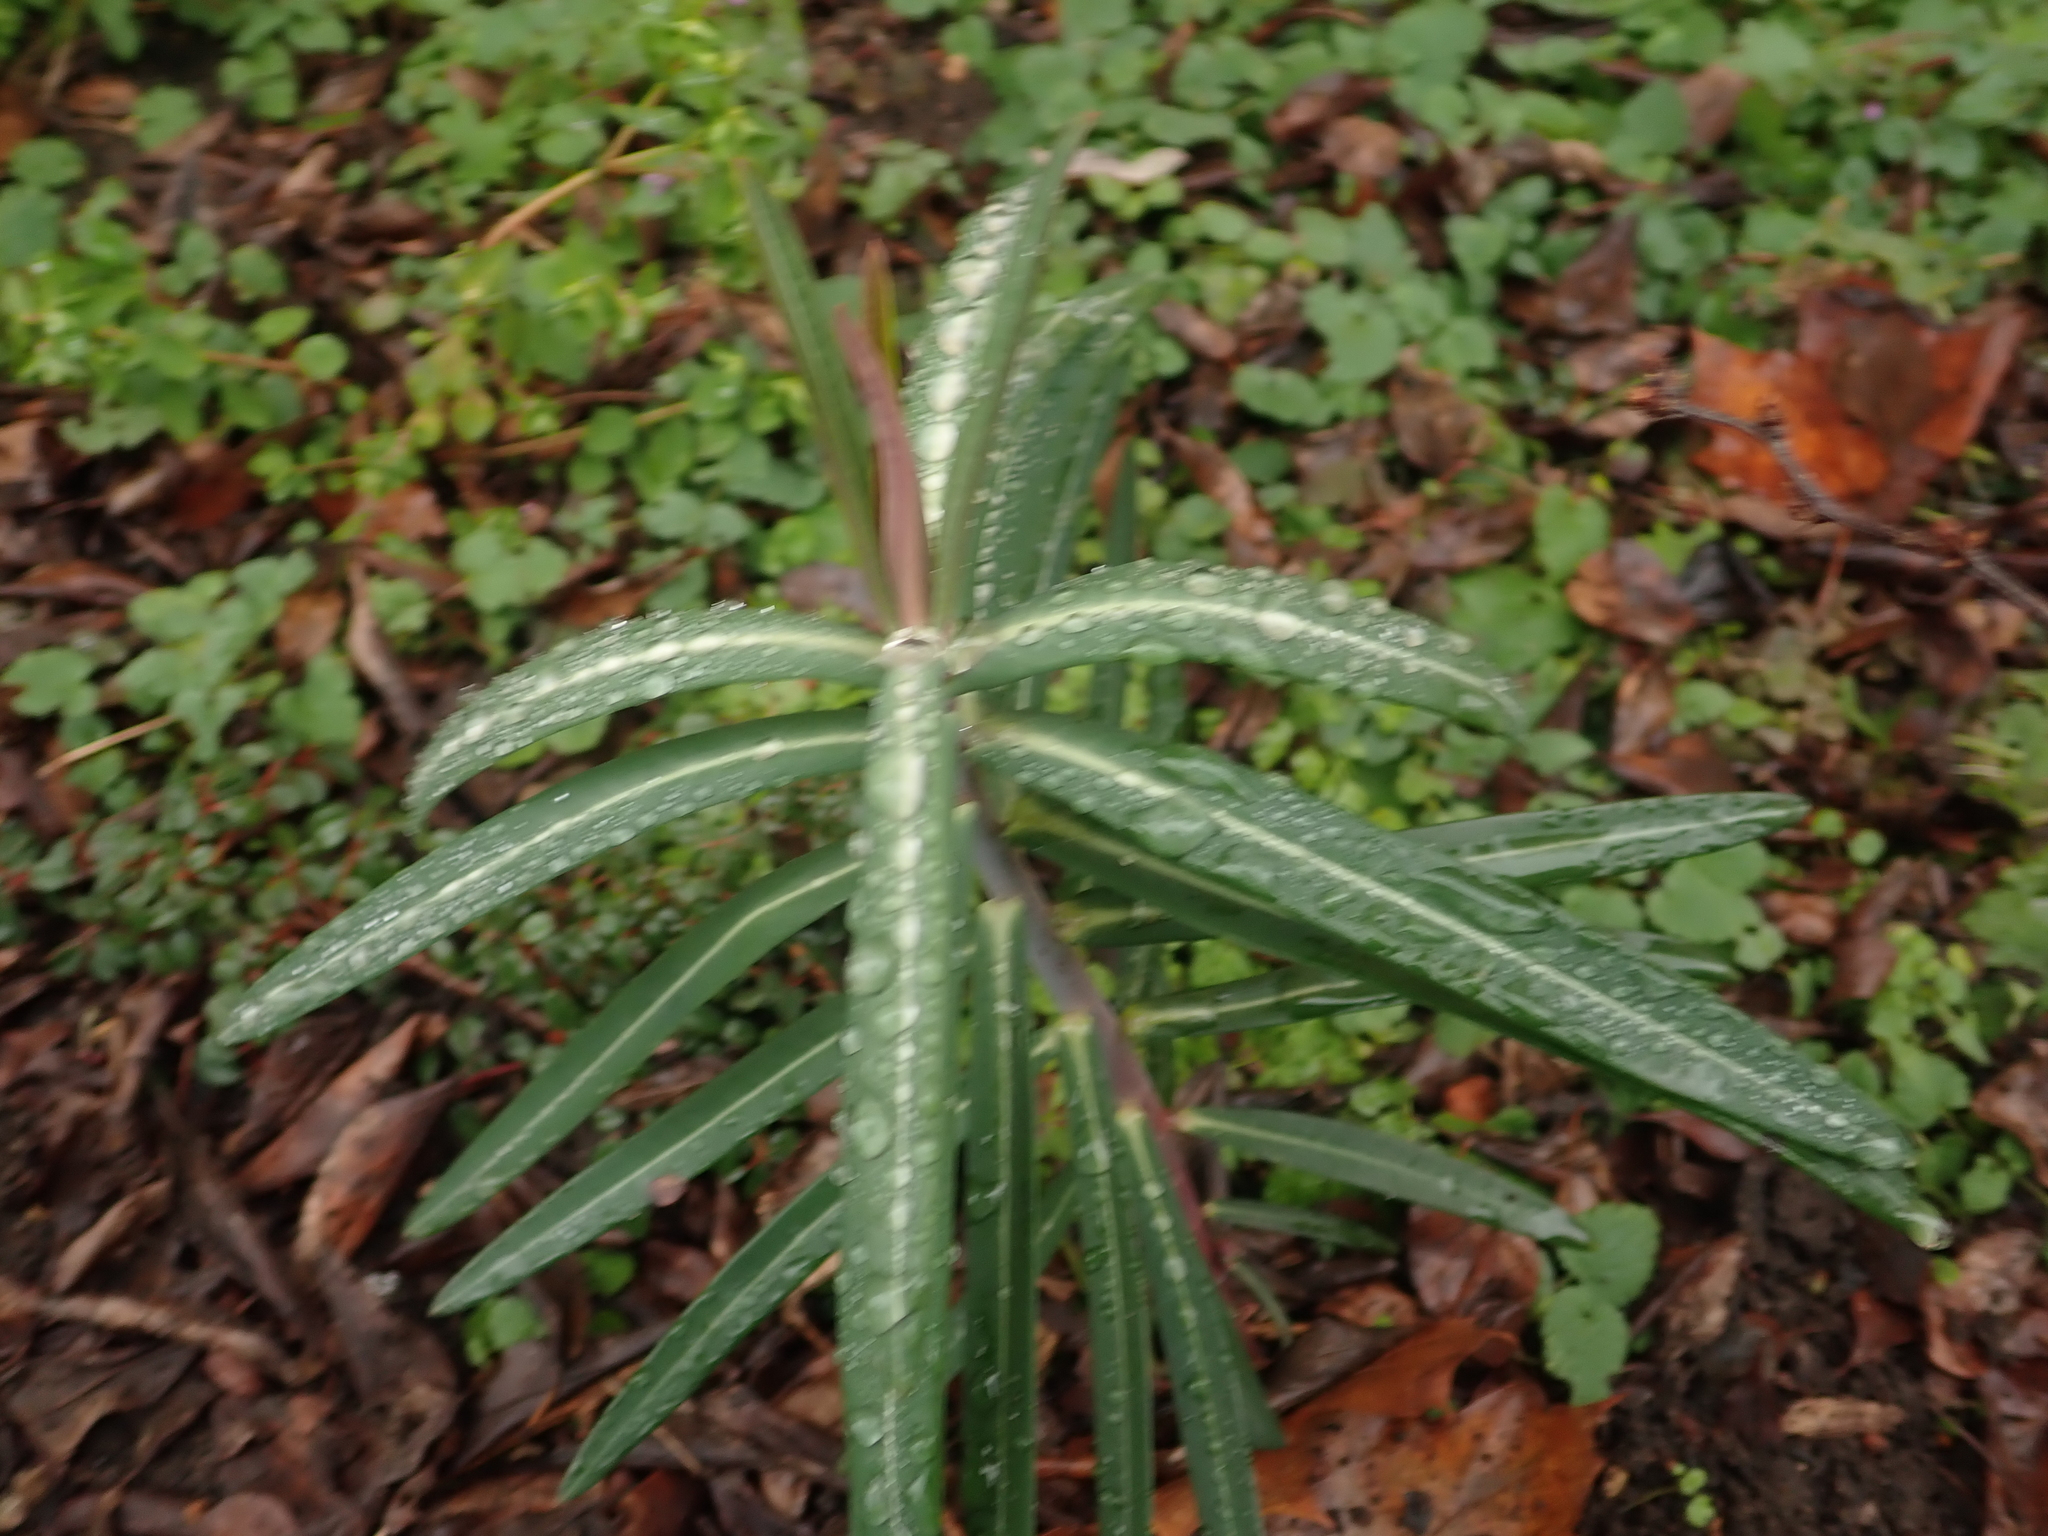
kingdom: Plantae
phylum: Tracheophyta
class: Magnoliopsida
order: Malpighiales
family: Euphorbiaceae
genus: Euphorbia
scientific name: Euphorbia lathyris
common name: Caper spurge
